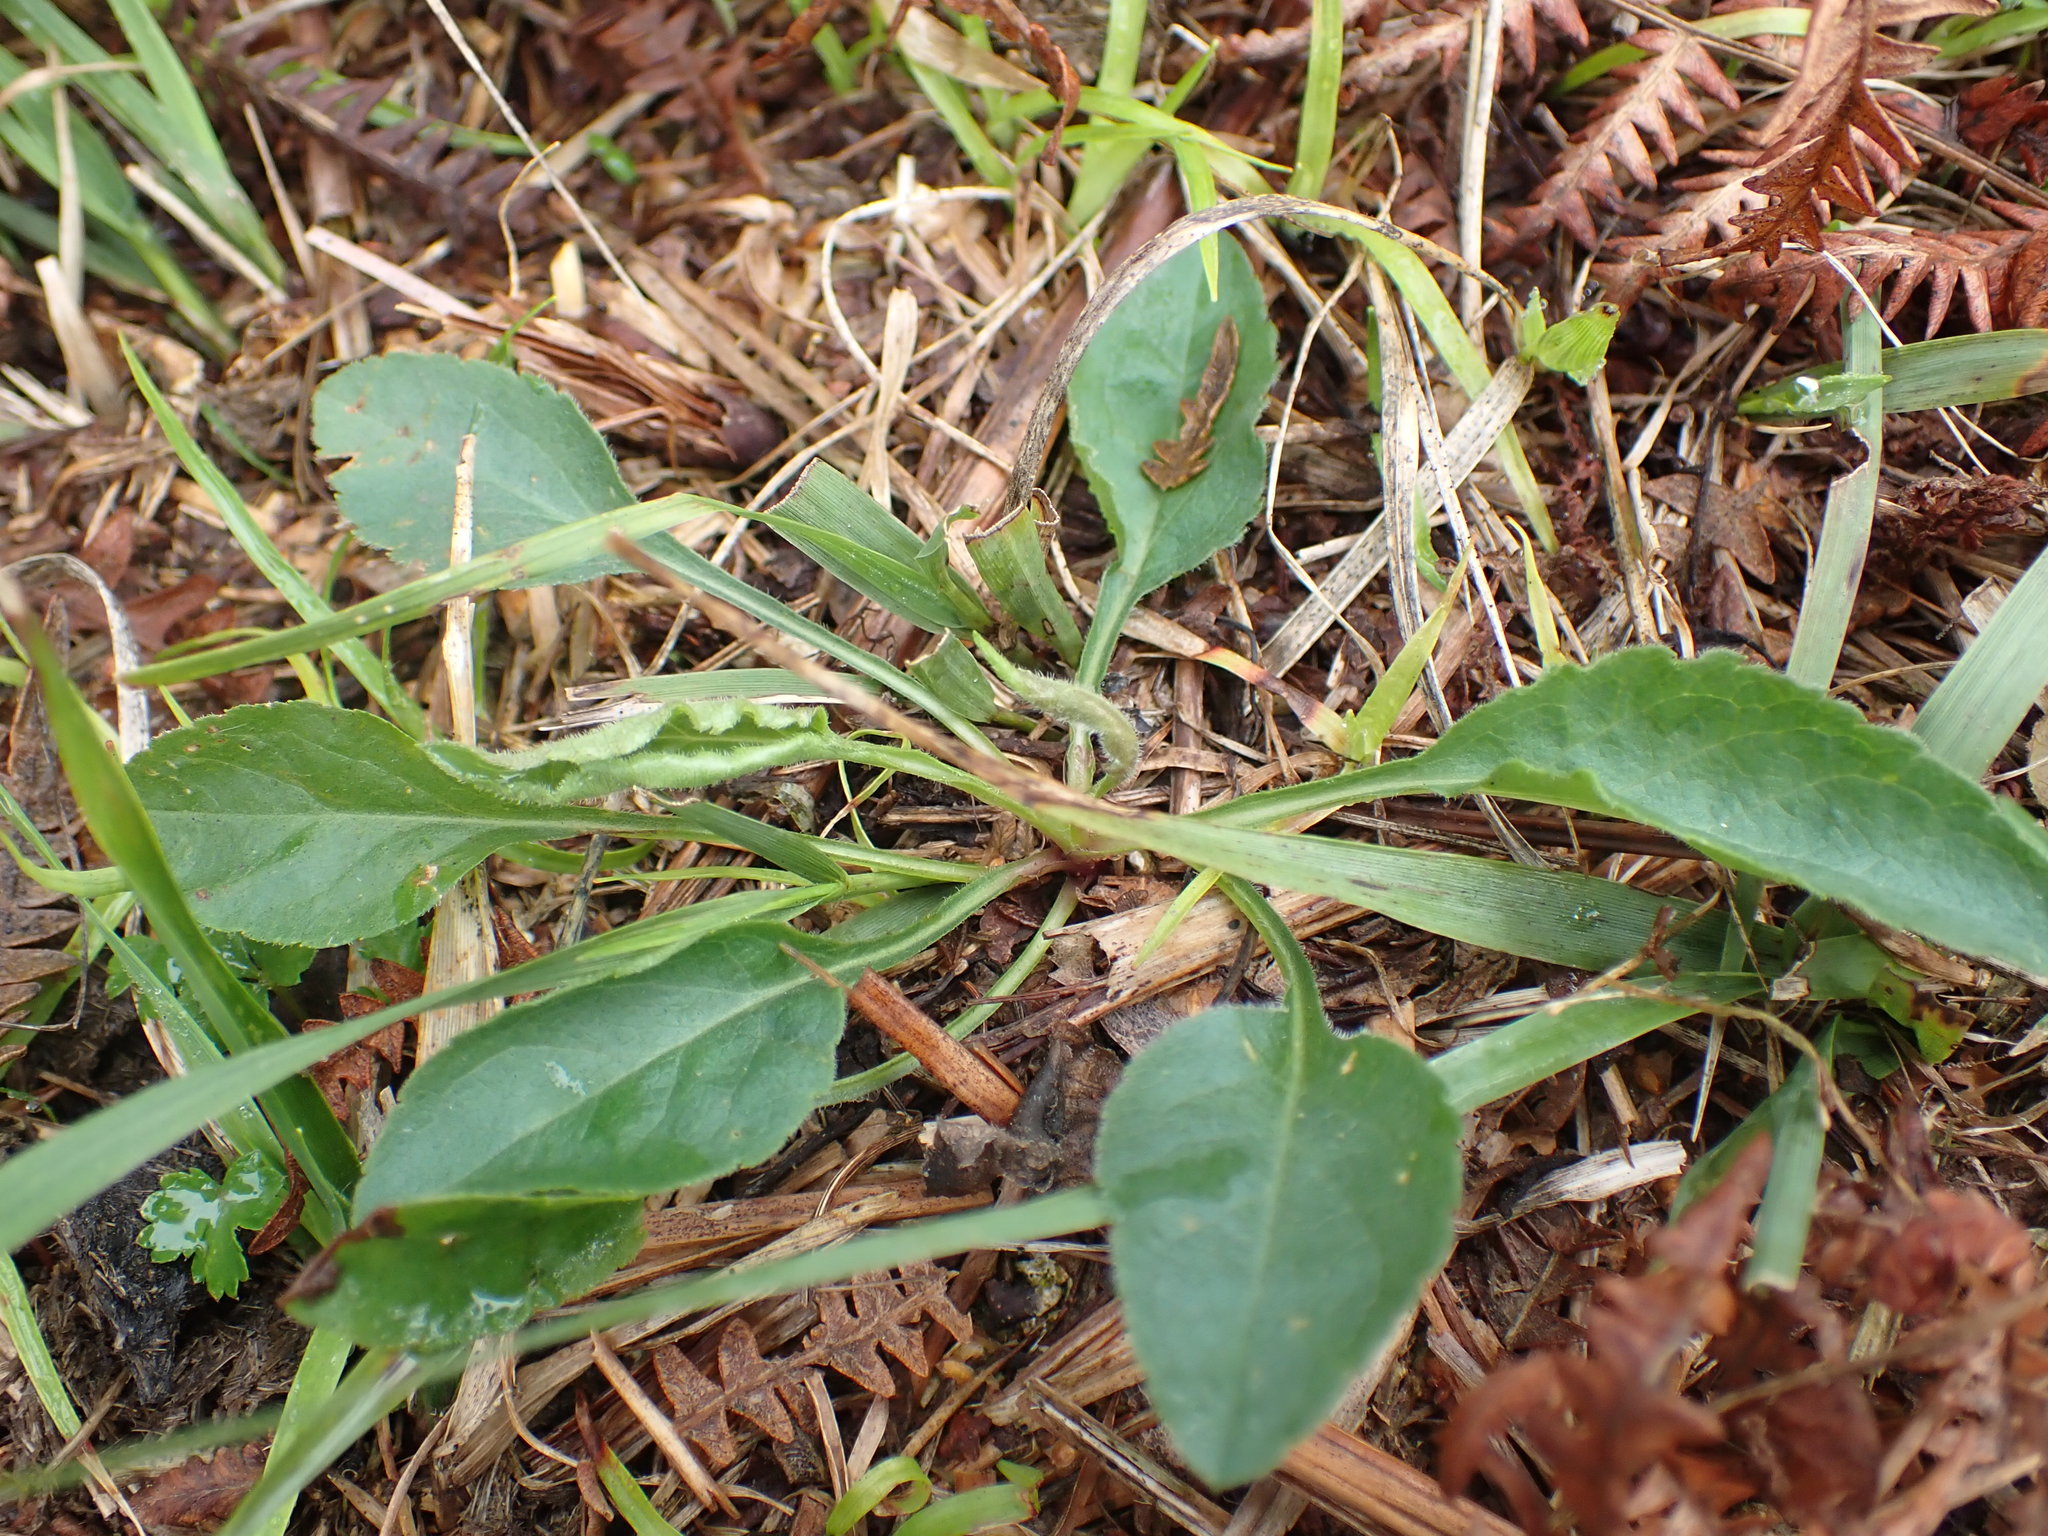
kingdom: Plantae
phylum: Tracheophyta
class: Magnoliopsida
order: Malpighiales
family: Violaceae
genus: Viola
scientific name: Viola lactea
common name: Pale dog-violet
